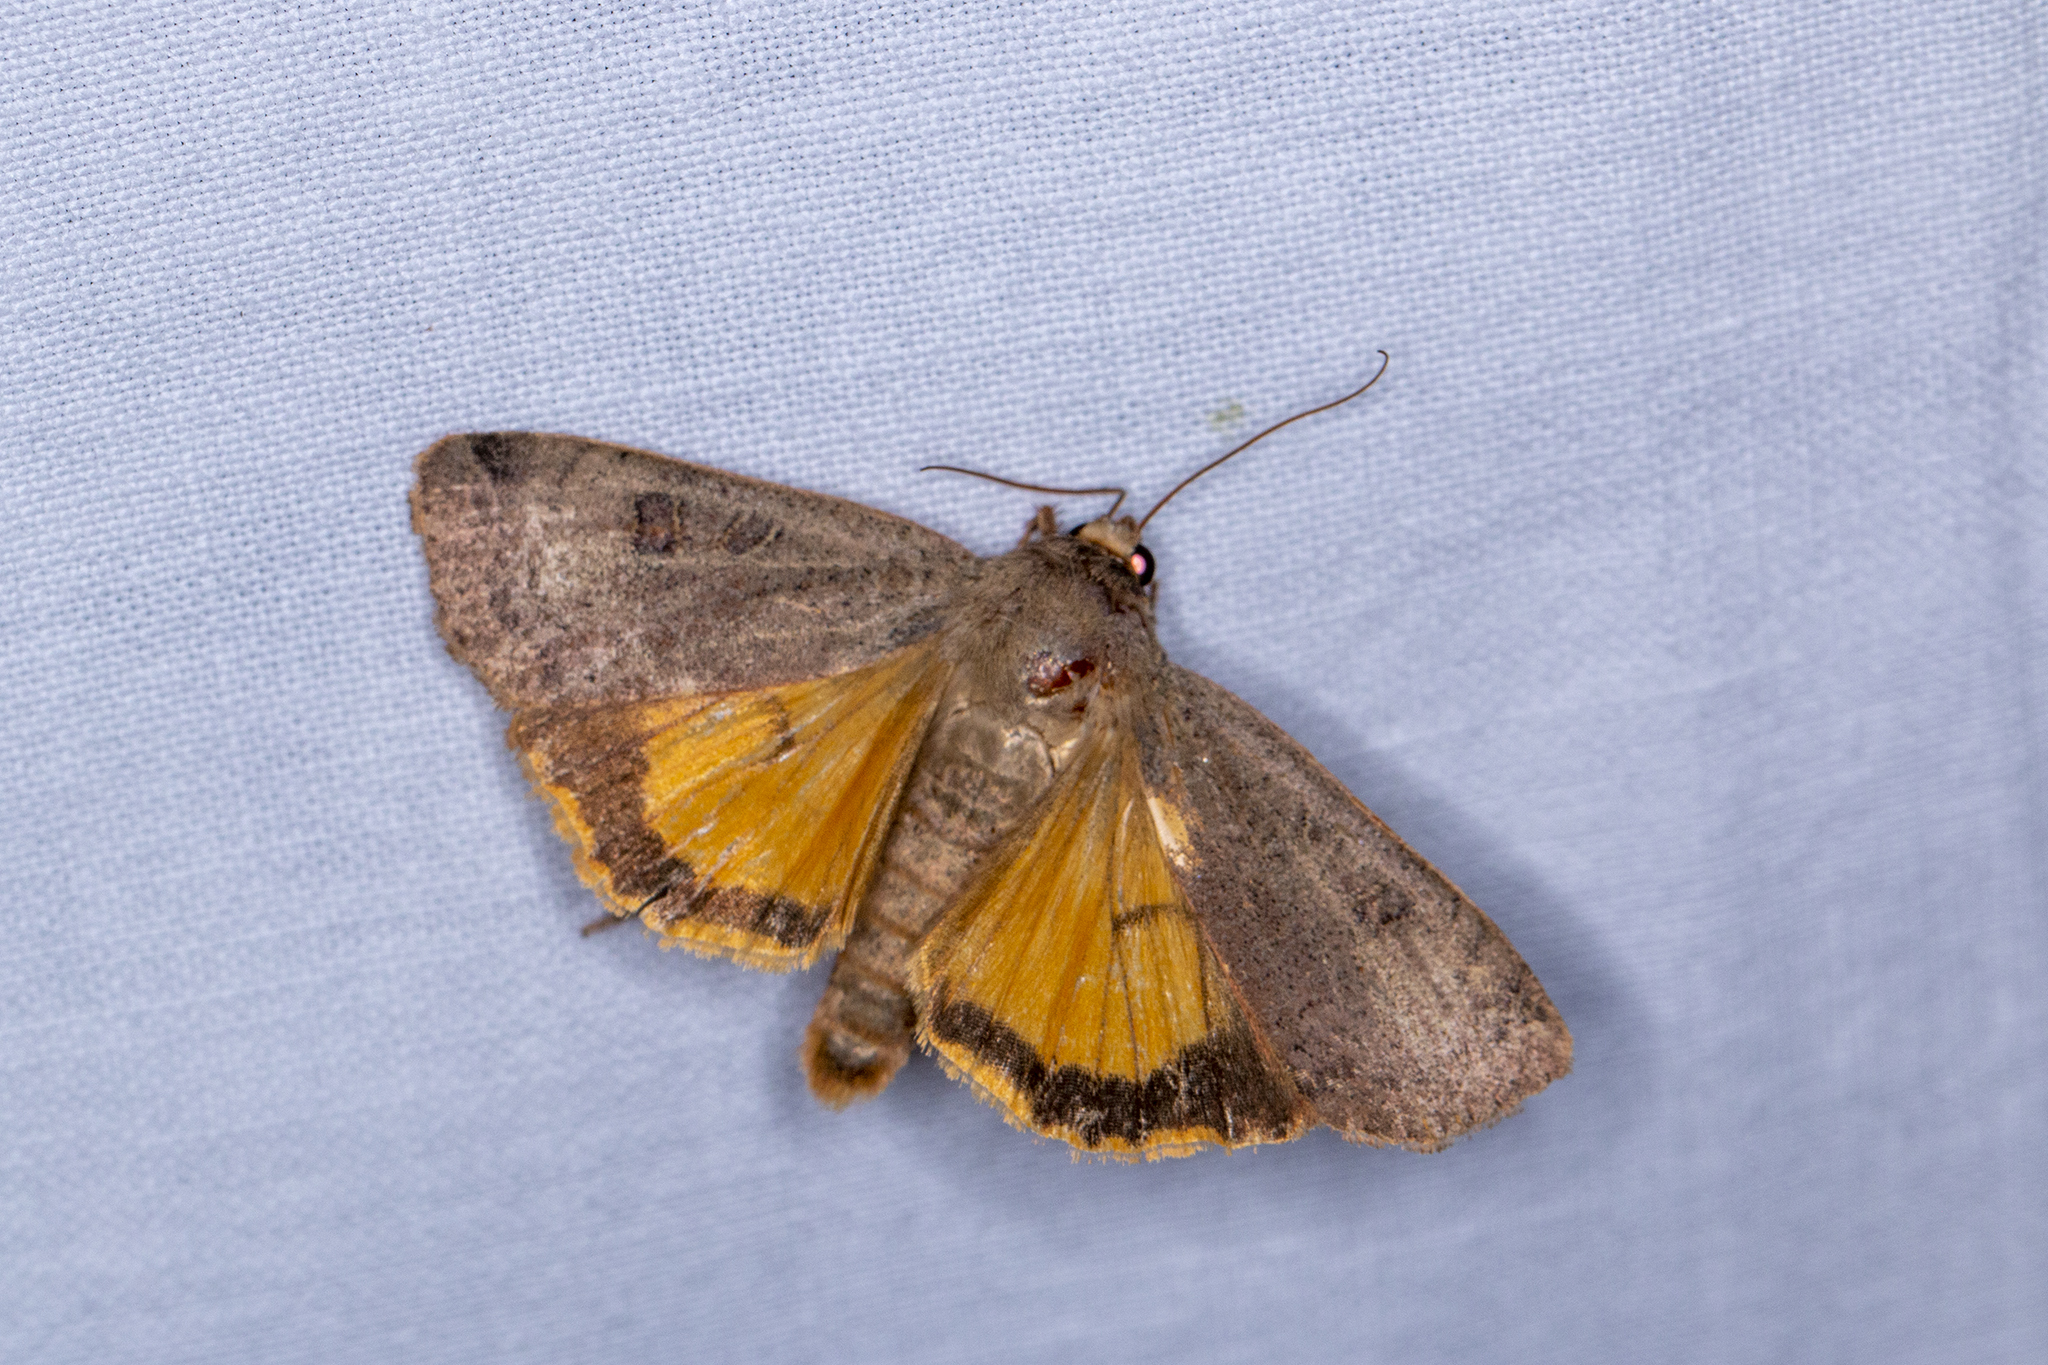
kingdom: Animalia
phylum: Arthropoda
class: Insecta
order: Lepidoptera
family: Noctuidae
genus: Noctua
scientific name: Noctua comes
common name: Lesser yellow underwing
